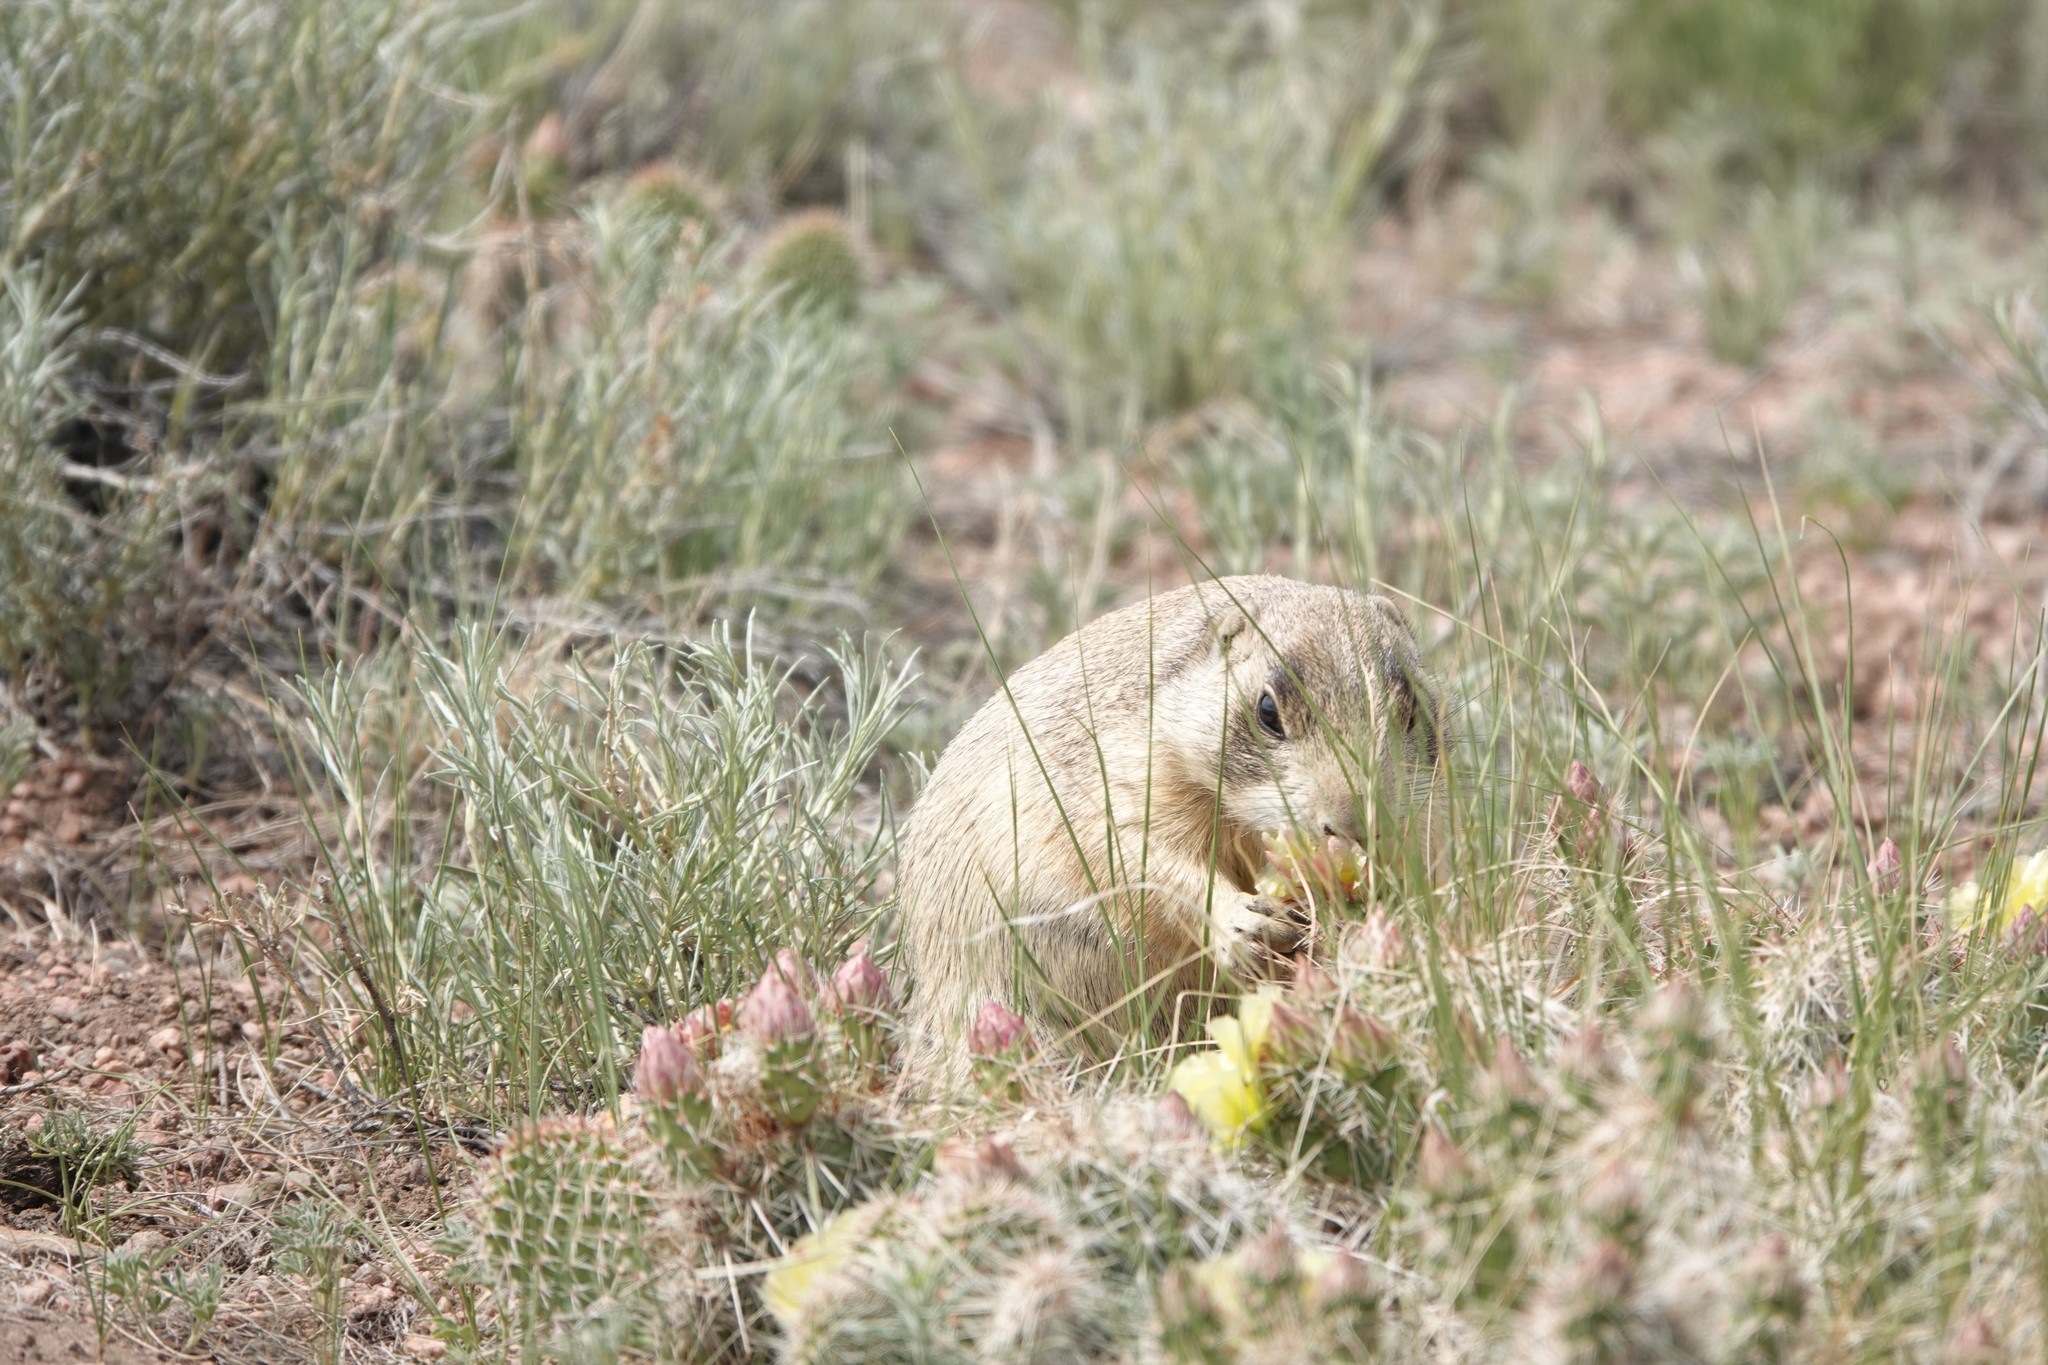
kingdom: Animalia
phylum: Chordata
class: Mammalia
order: Rodentia
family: Sciuridae
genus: Cynomys
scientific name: Cynomys leucurus
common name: White-tailed prairie dog
